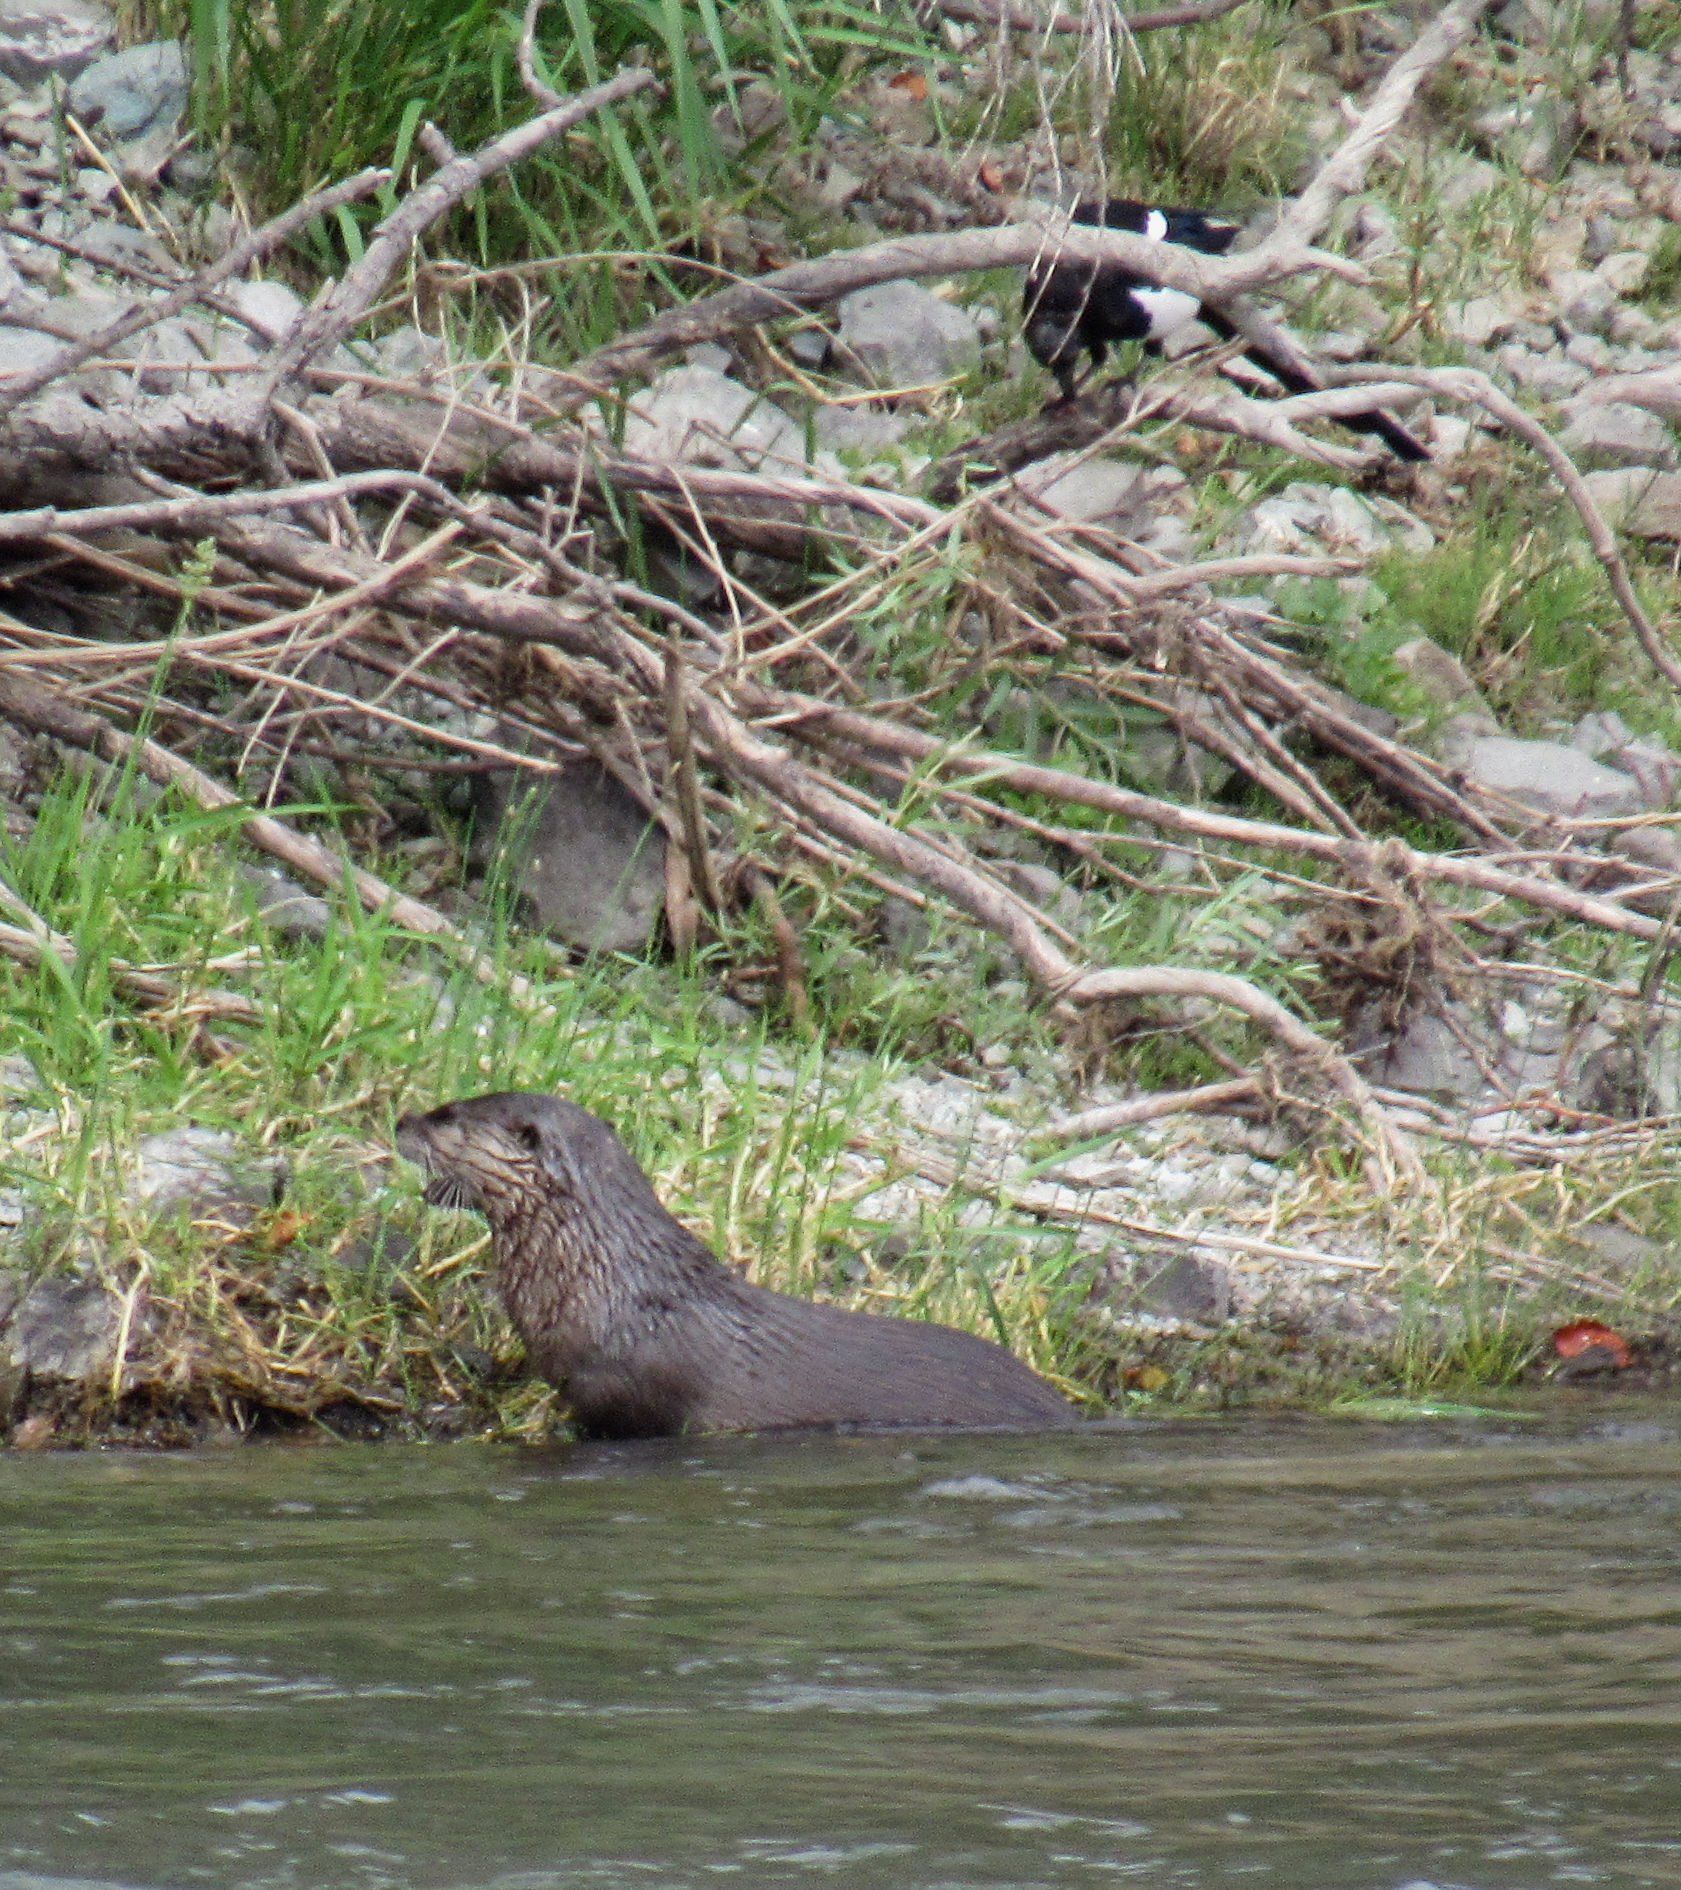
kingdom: Animalia
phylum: Chordata
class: Aves
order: Passeriformes
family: Corvidae
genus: Pica
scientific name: Pica hudsonia
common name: Black-billed magpie
